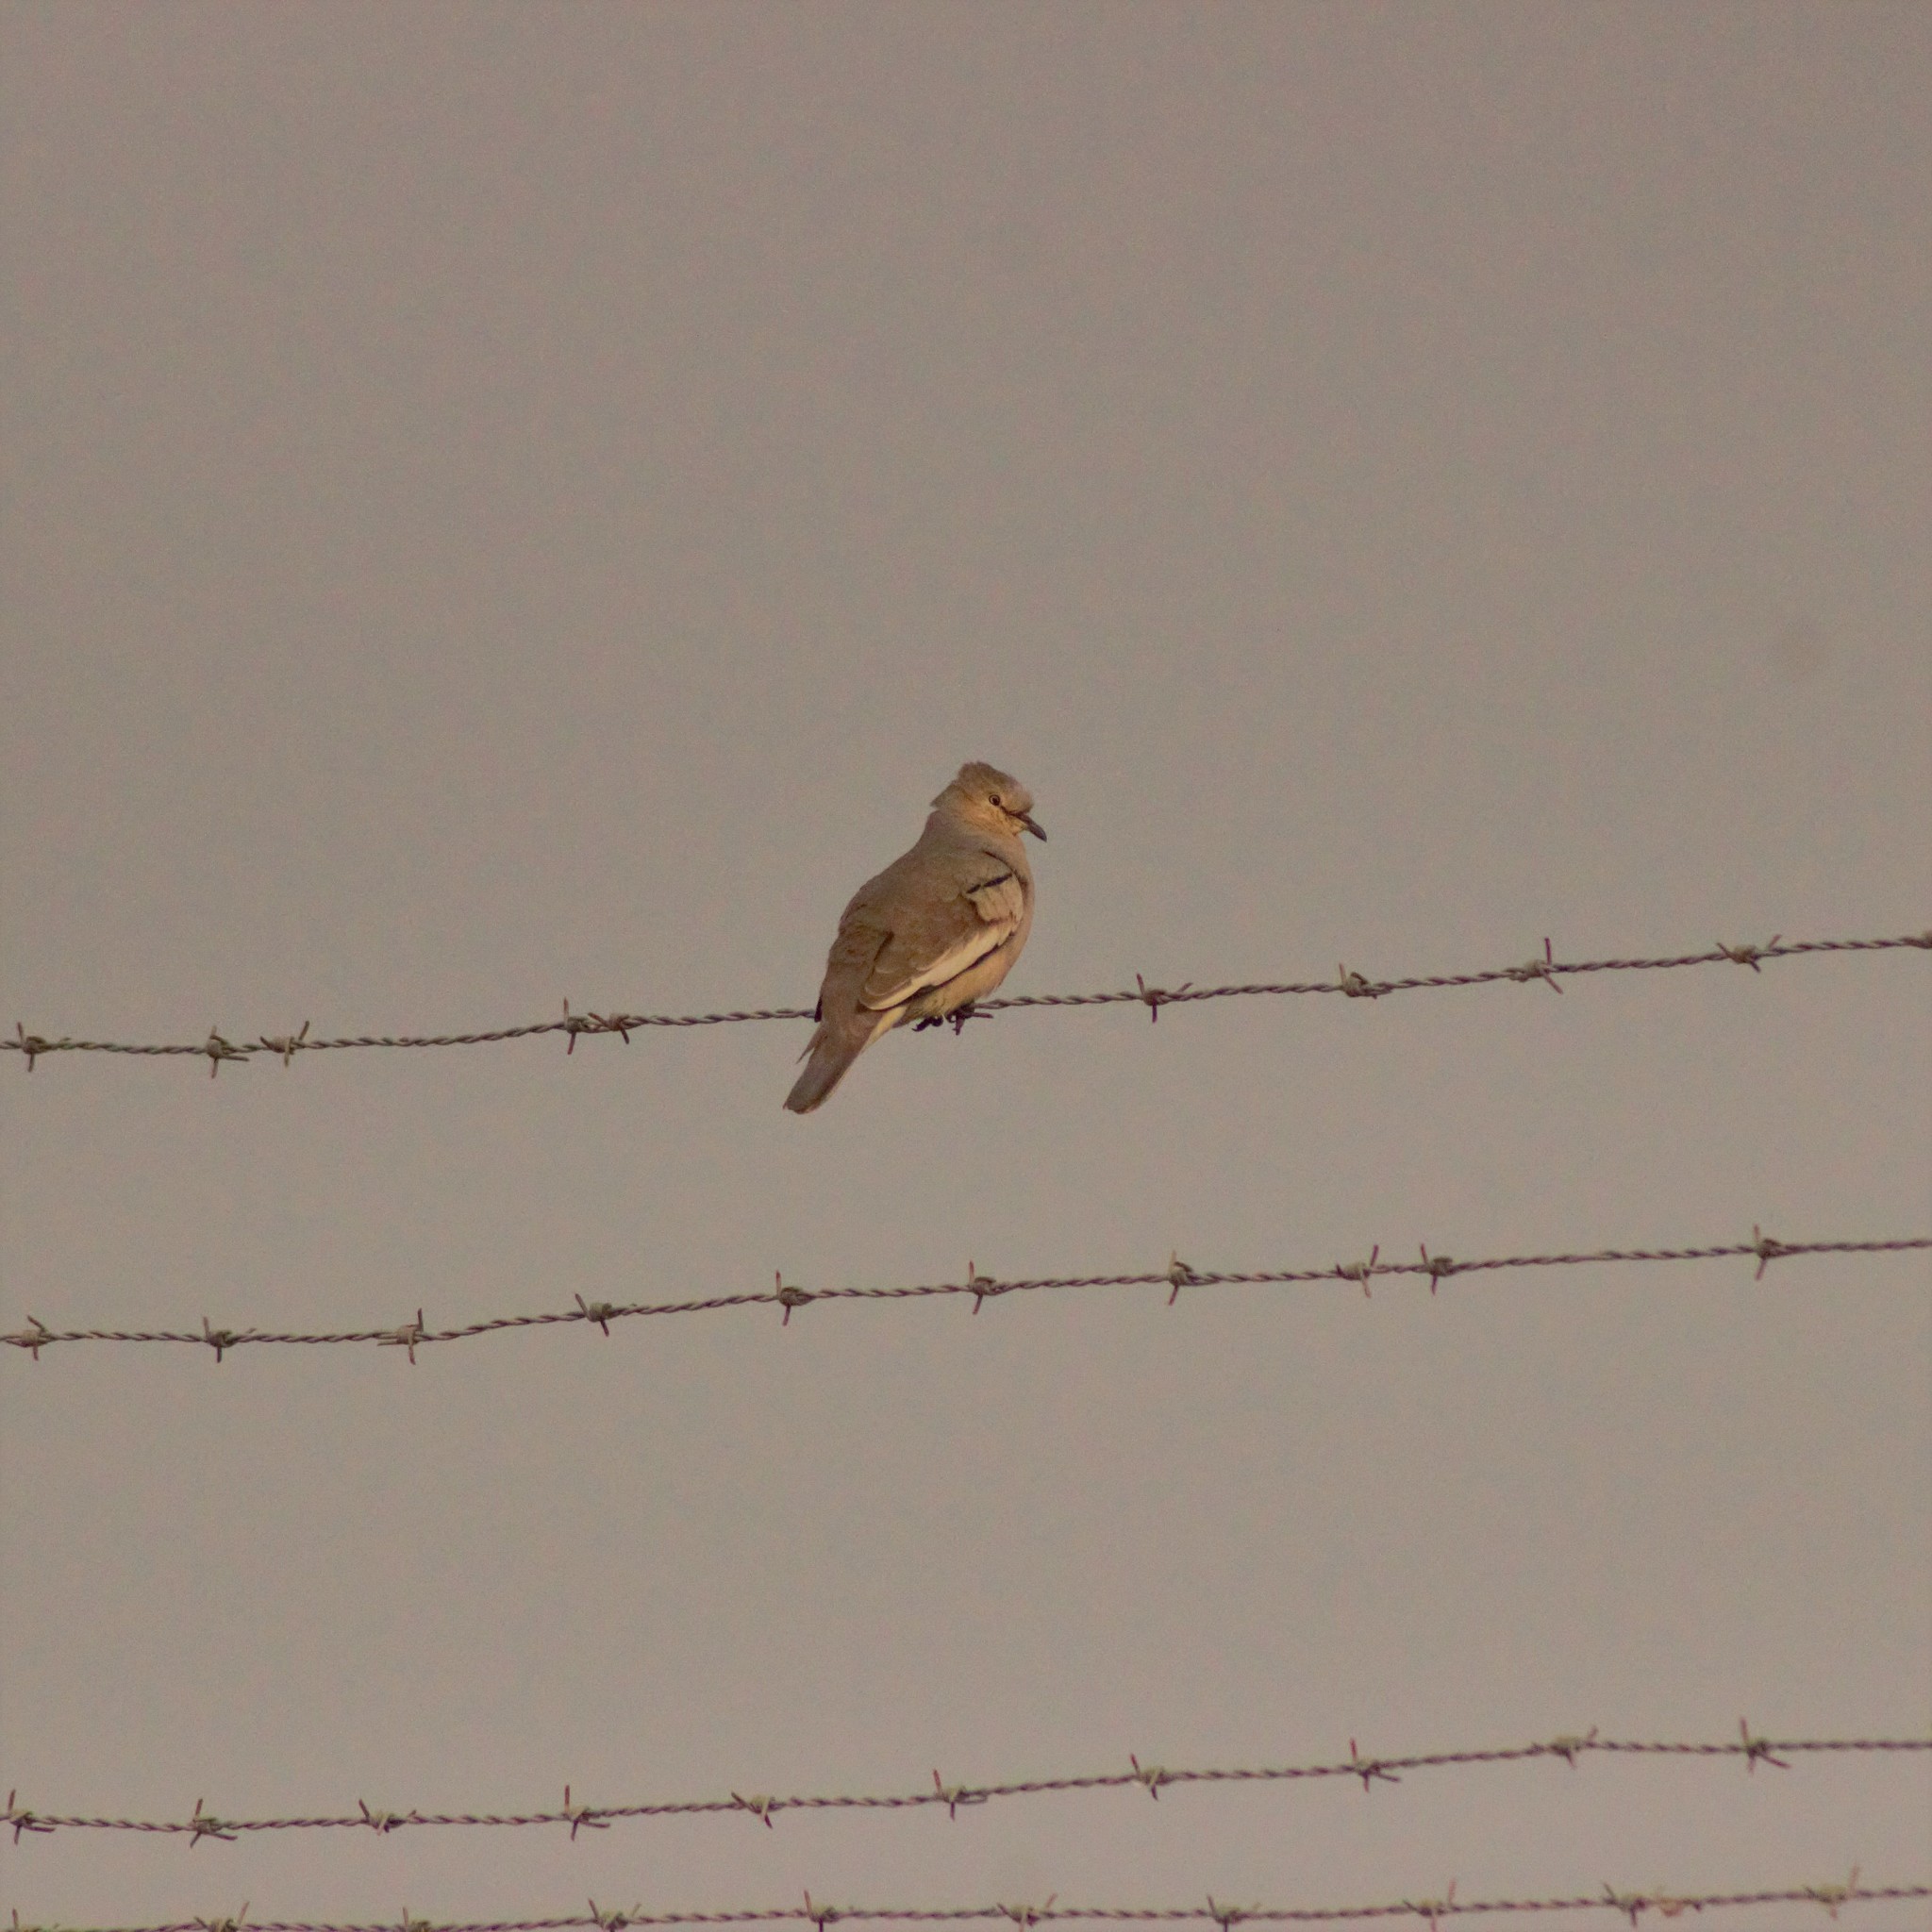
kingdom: Animalia
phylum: Chordata
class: Aves
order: Columbiformes
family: Columbidae
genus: Columbina
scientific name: Columbina picui
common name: Picui ground dove
